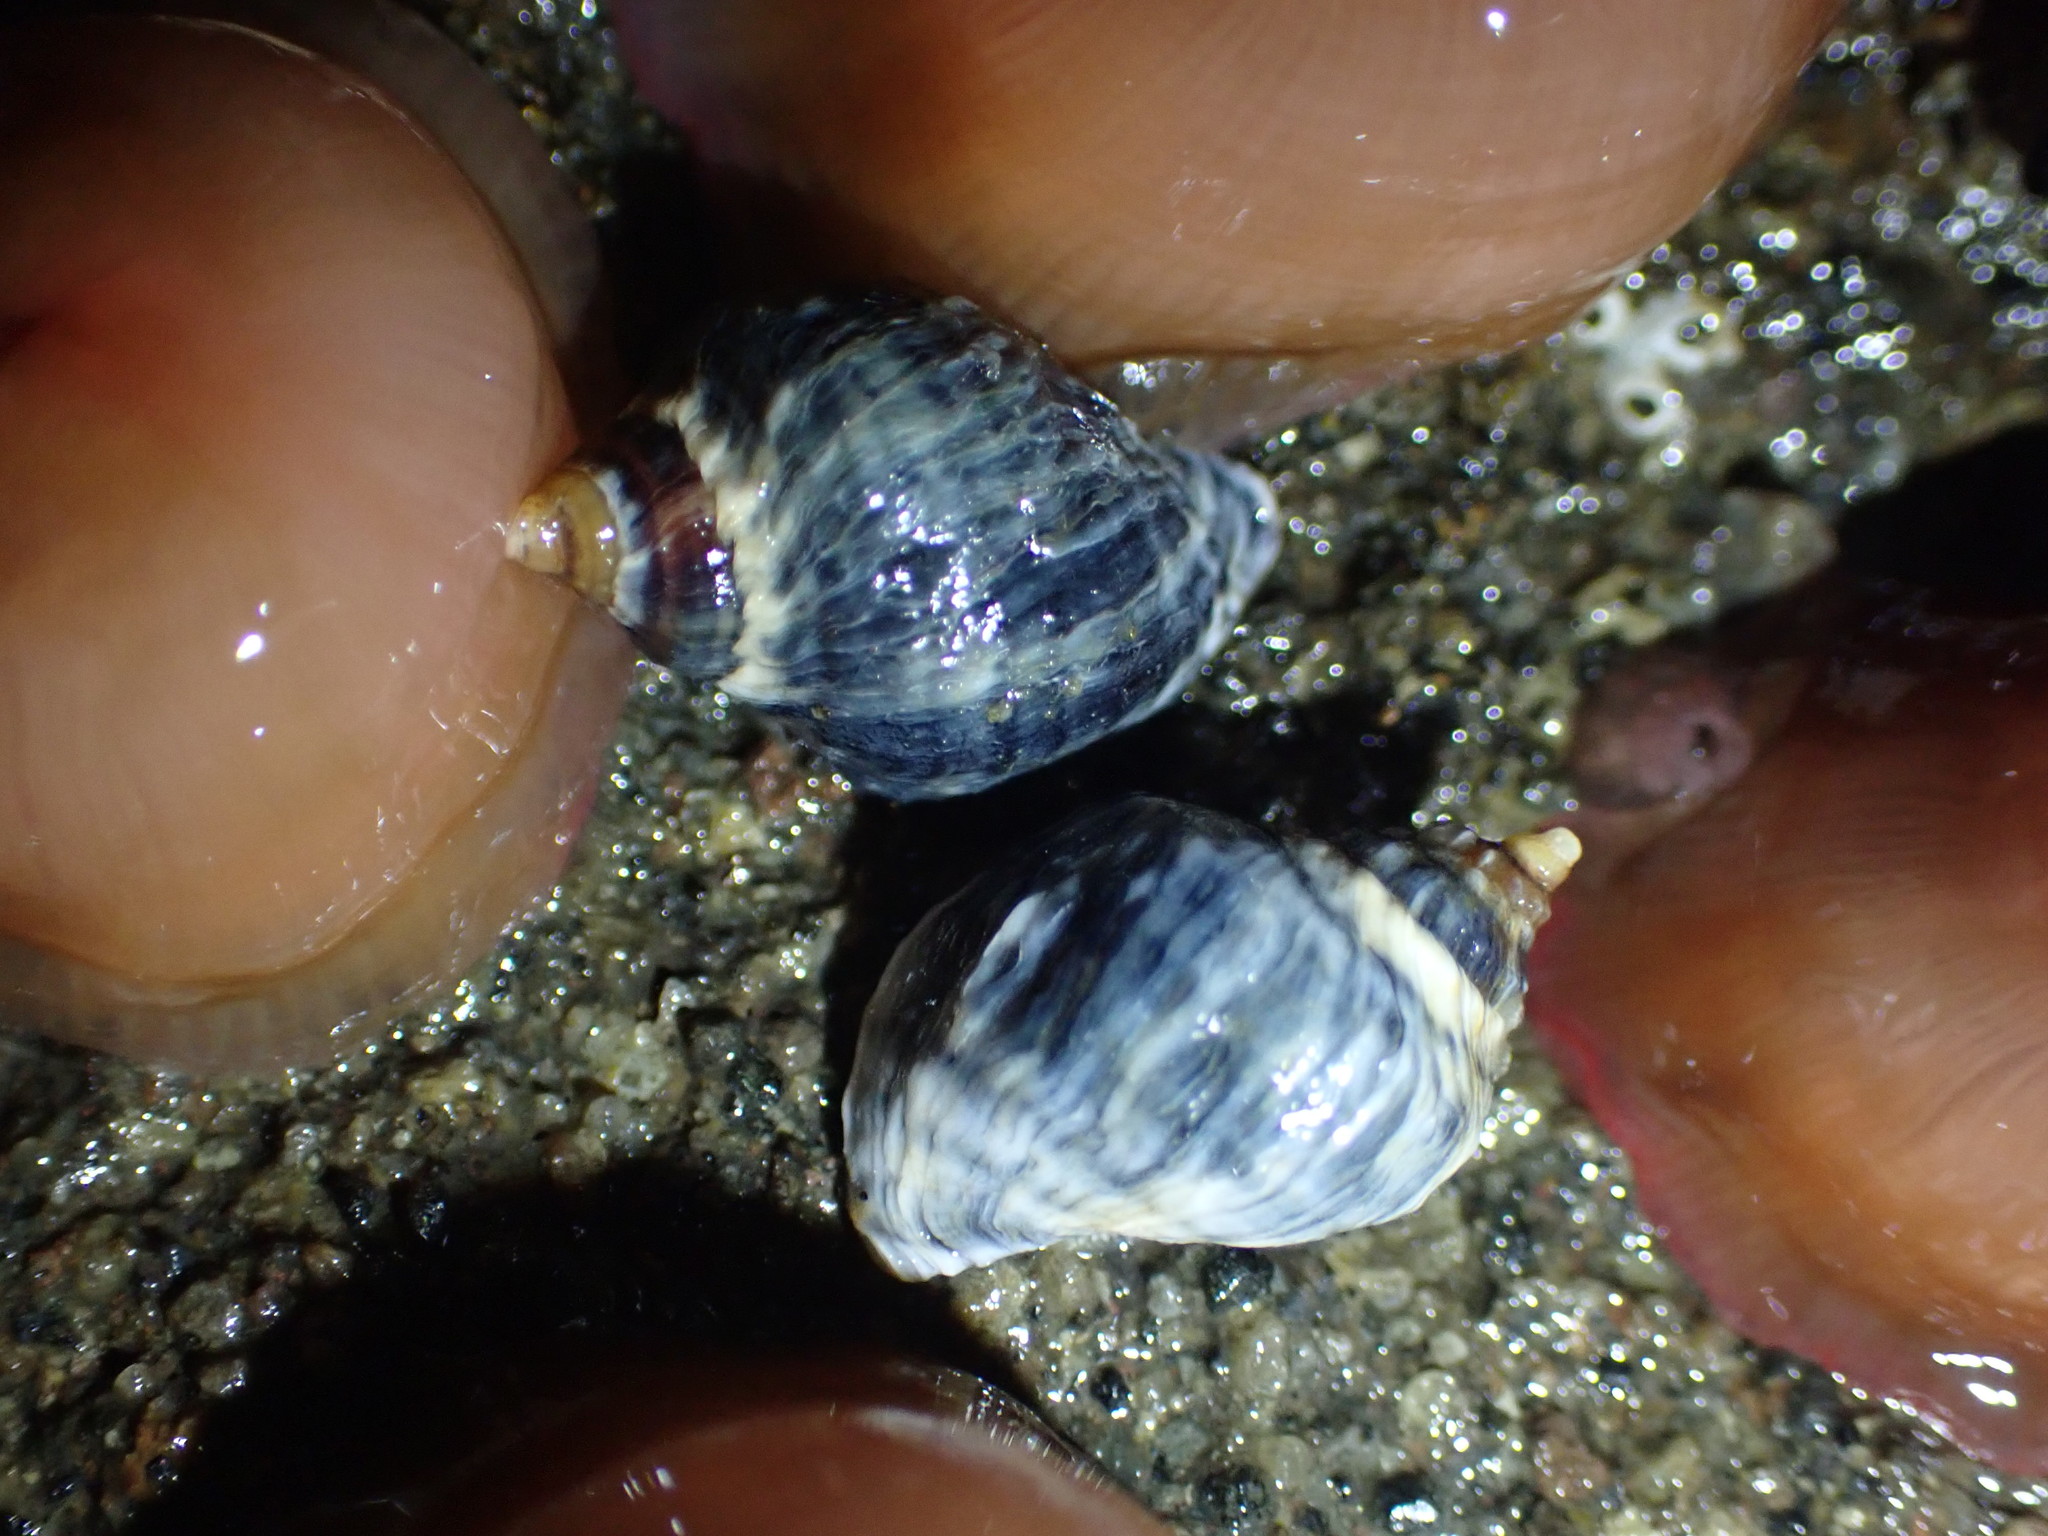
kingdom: Animalia
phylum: Mollusca
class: Gastropoda
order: Neogastropoda
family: Muricidae
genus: Haustrum
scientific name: Haustrum albomarginatum
